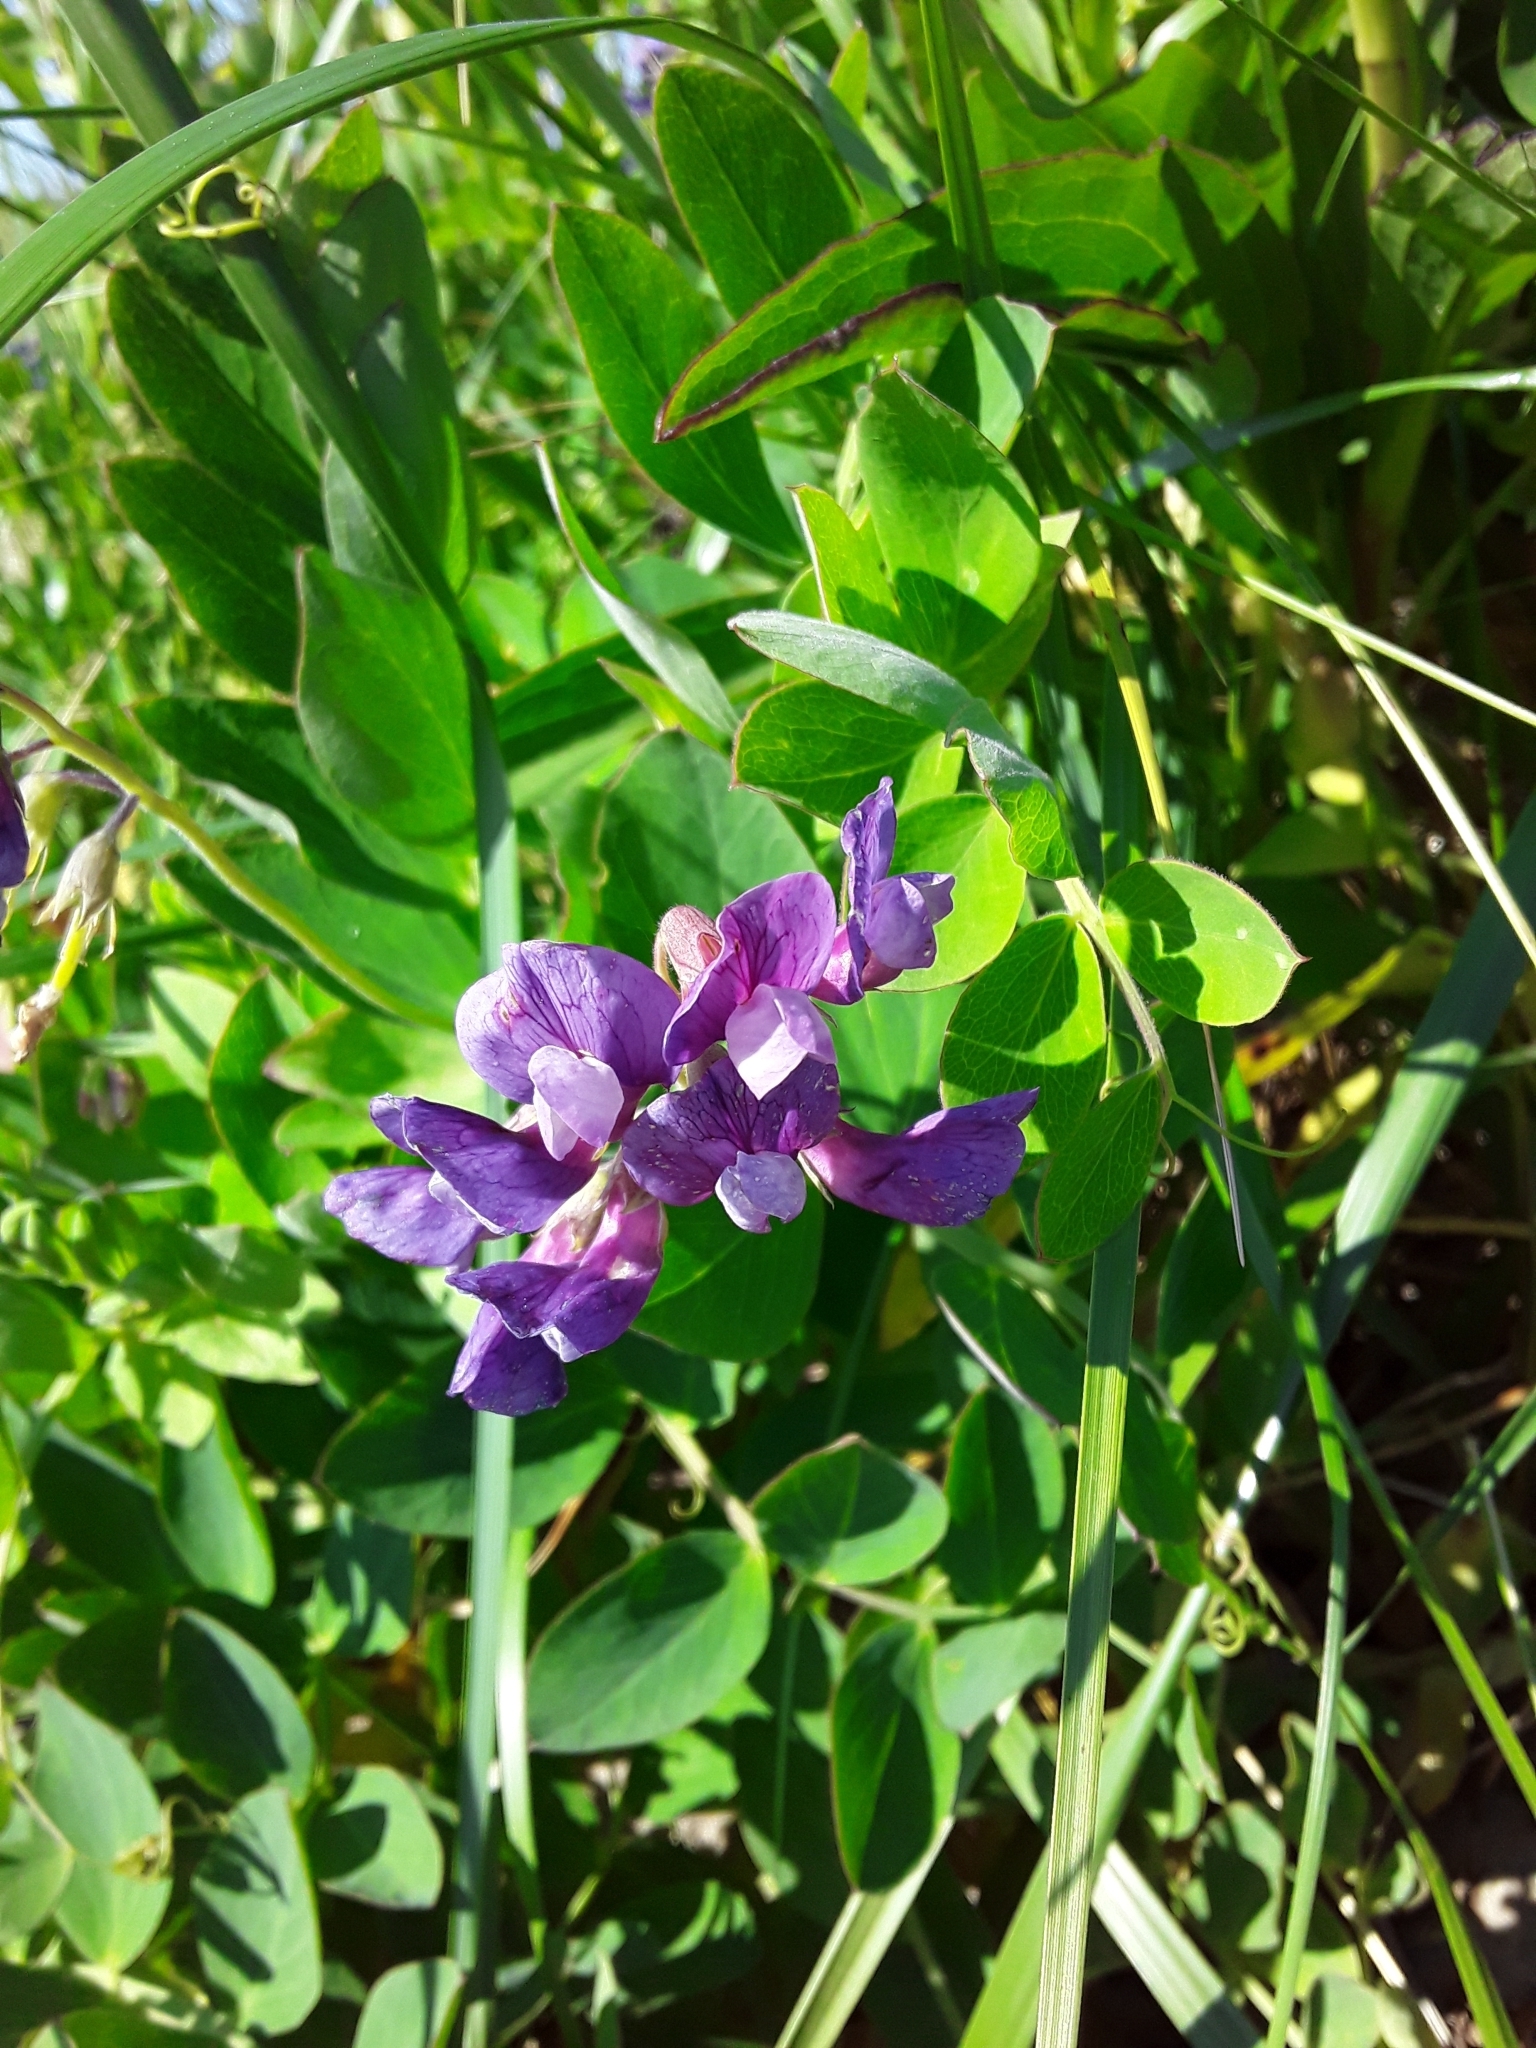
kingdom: Plantae
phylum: Tracheophyta
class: Magnoliopsida
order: Fabales
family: Fabaceae
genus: Lathyrus
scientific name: Lathyrus japonicus
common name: Sea pea
